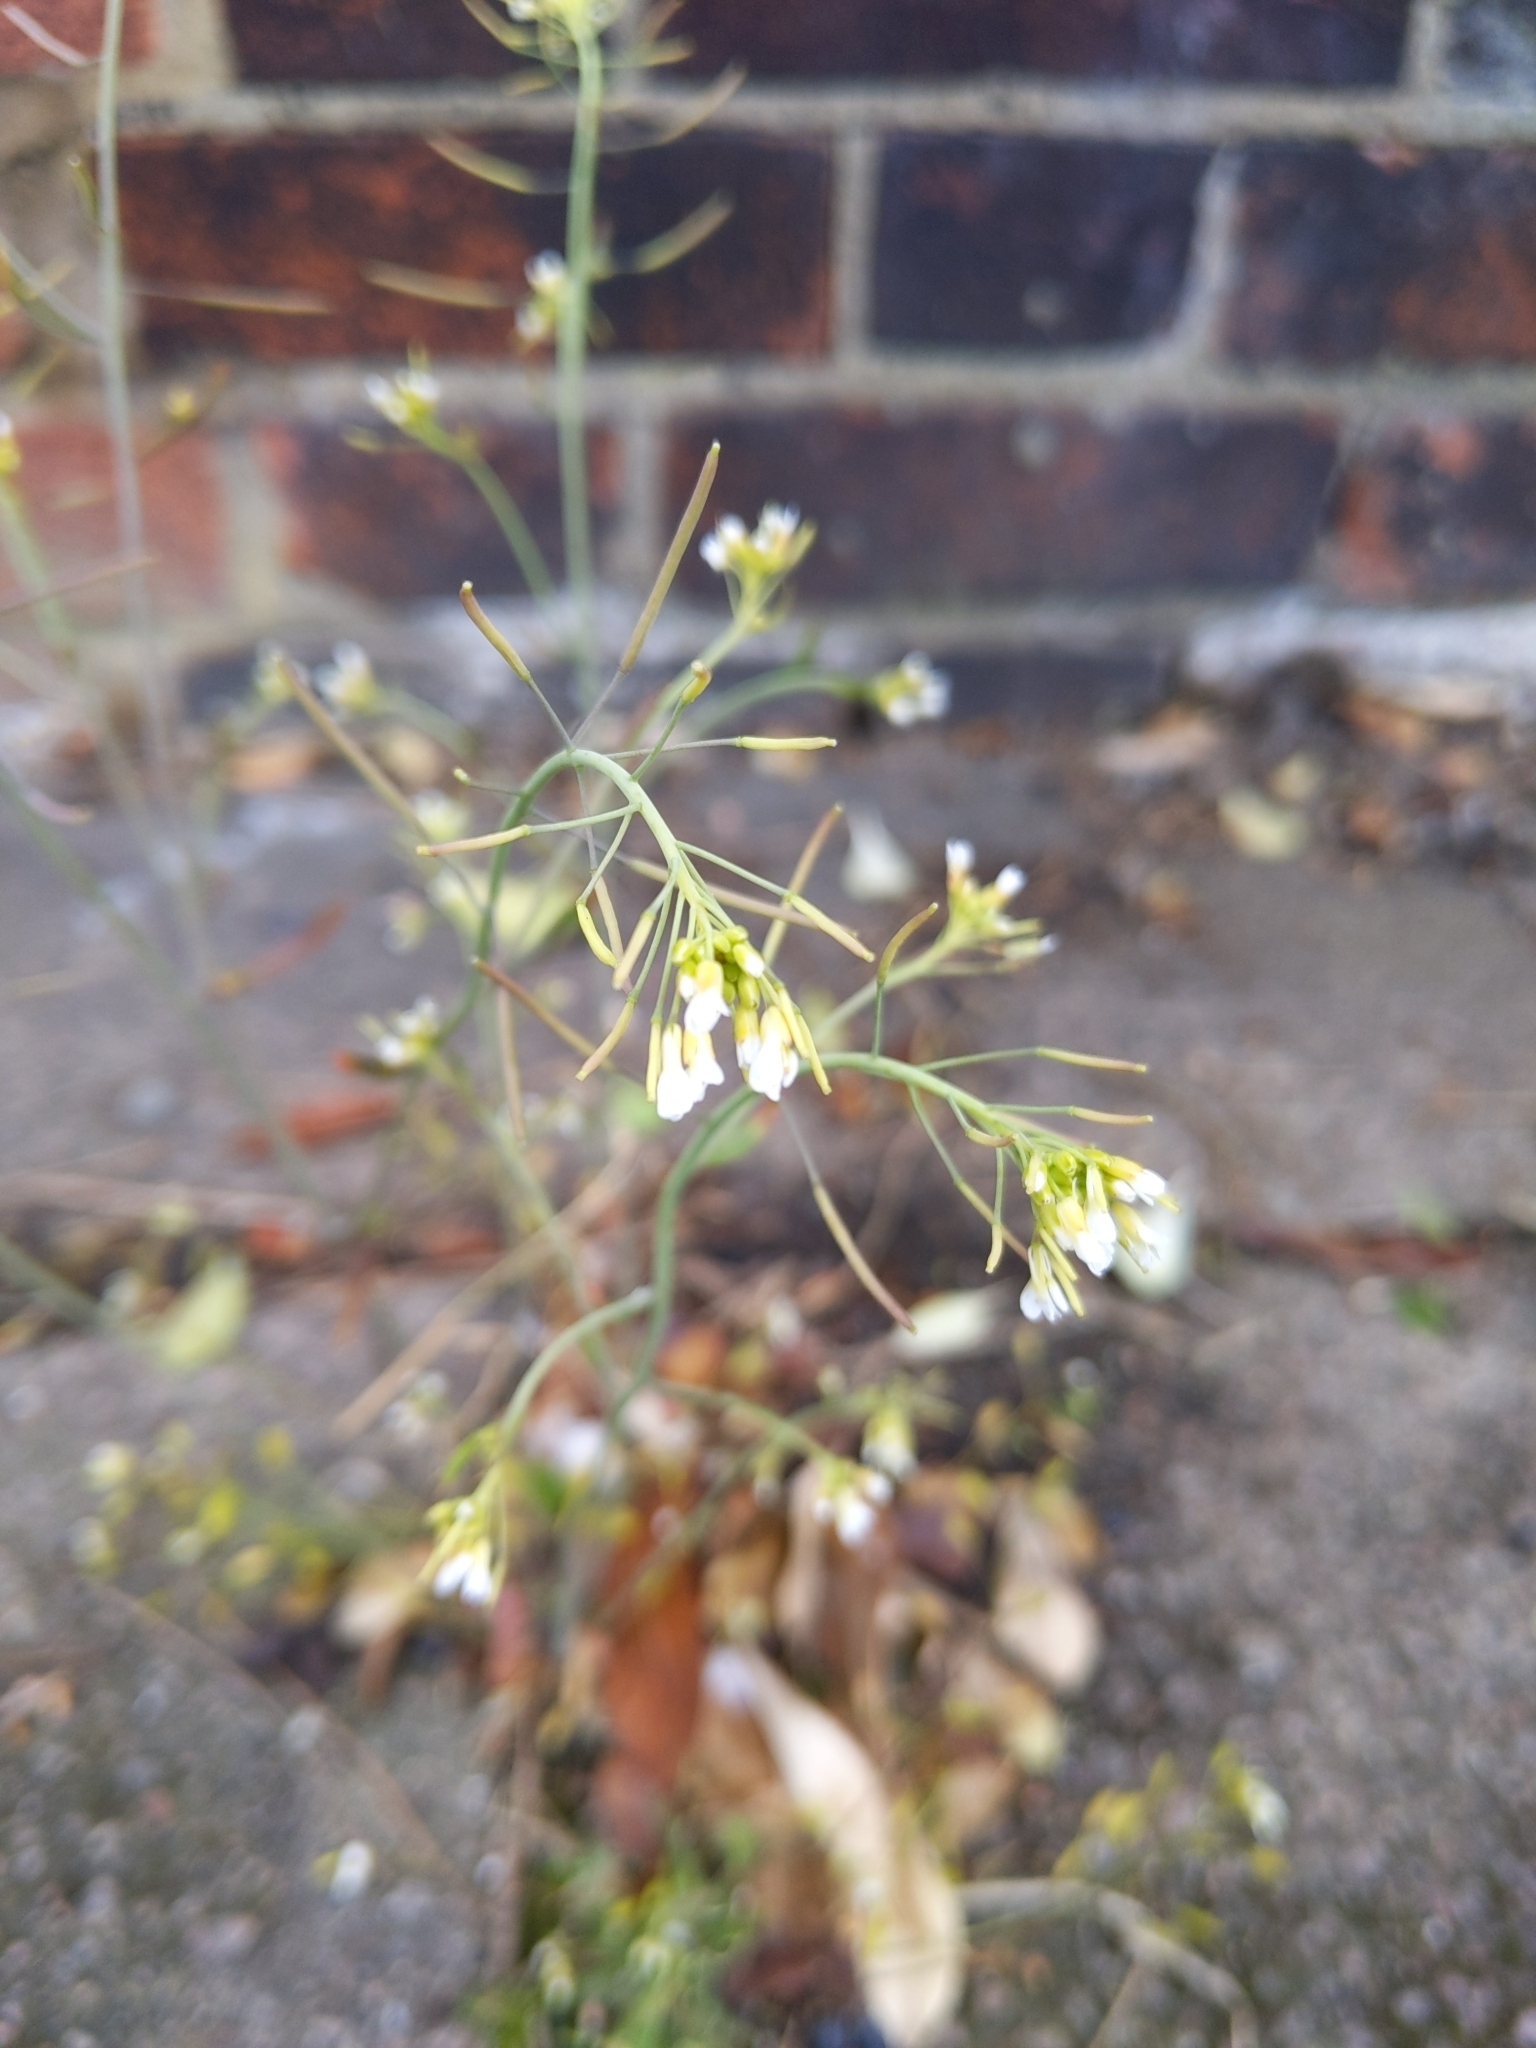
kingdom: Plantae
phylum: Tracheophyta
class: Magnoliopsida
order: Brassicales
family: Brassicaceae
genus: Arabidopsis
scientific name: Arabidopsis thaliana
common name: Thale cress
